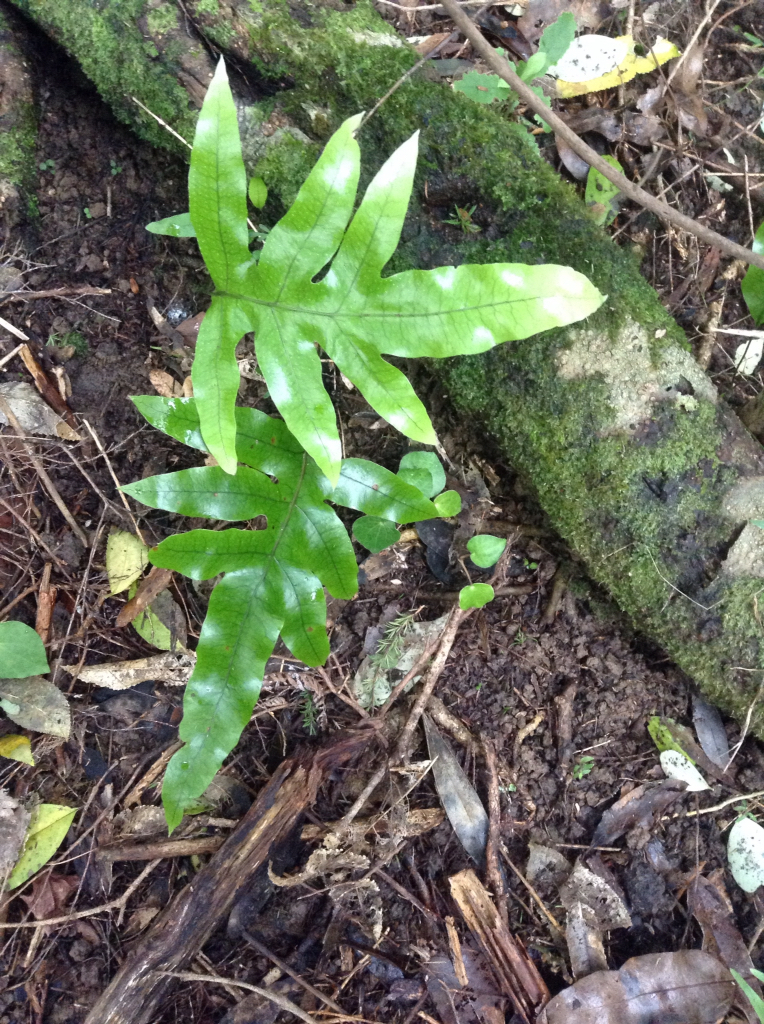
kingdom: Plantae
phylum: Tracheophyta
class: Polypodiopsida
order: Polypodiales
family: Polypodiaceae
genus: Lecanopteris
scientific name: Lecanopteris pustulata
